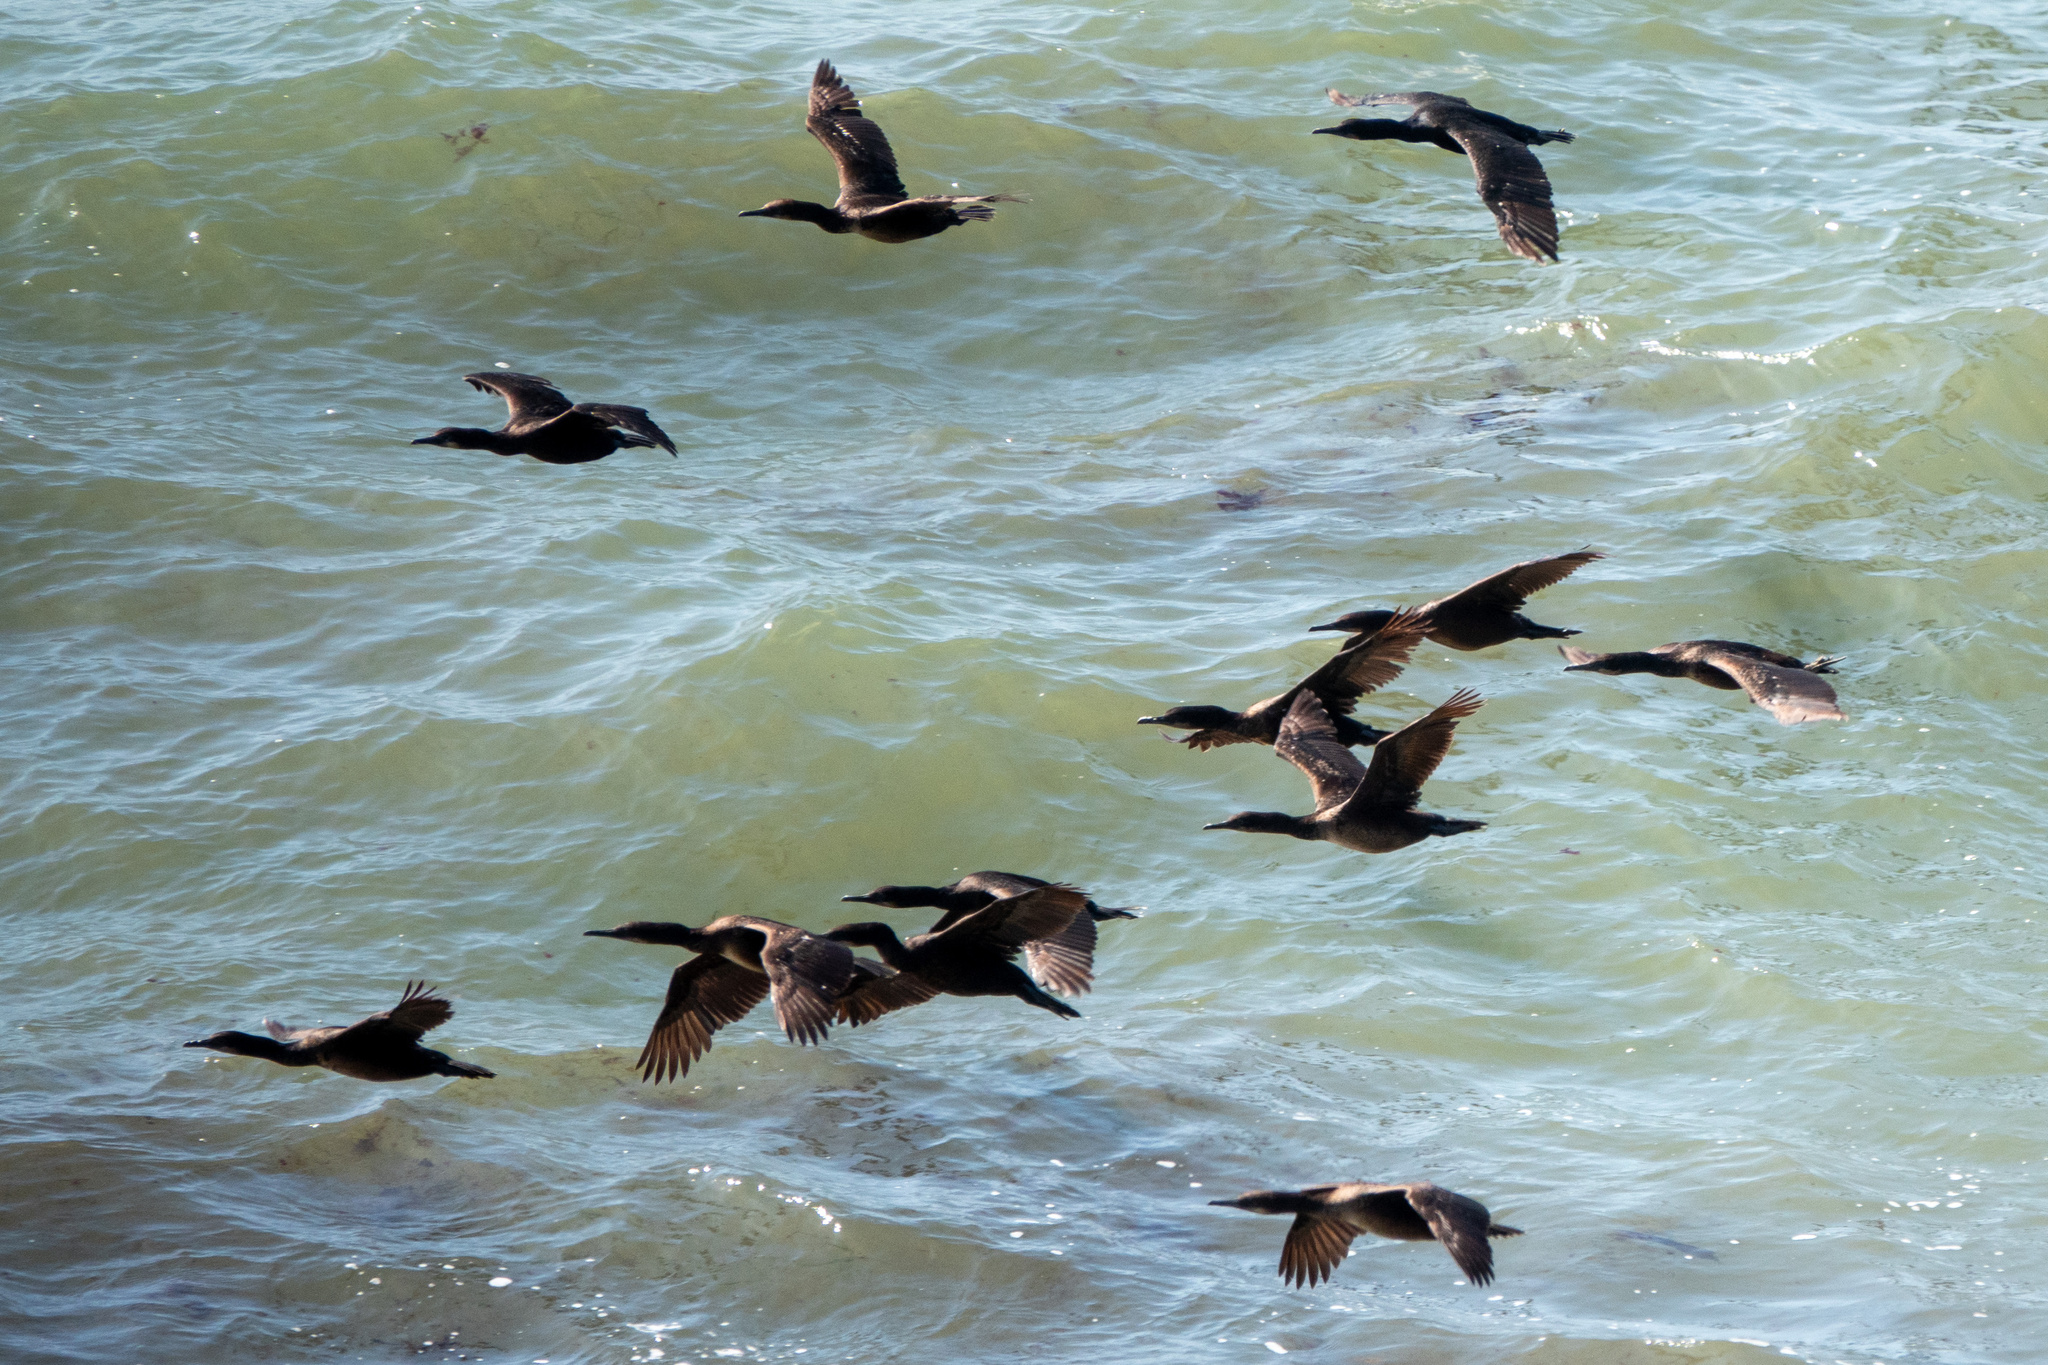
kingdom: Animalia
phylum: Chordata
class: Aves
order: Suliformes
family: Phalacrocoracidae
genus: Urile
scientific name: Urile penicillatus
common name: Brandt's cormorant
